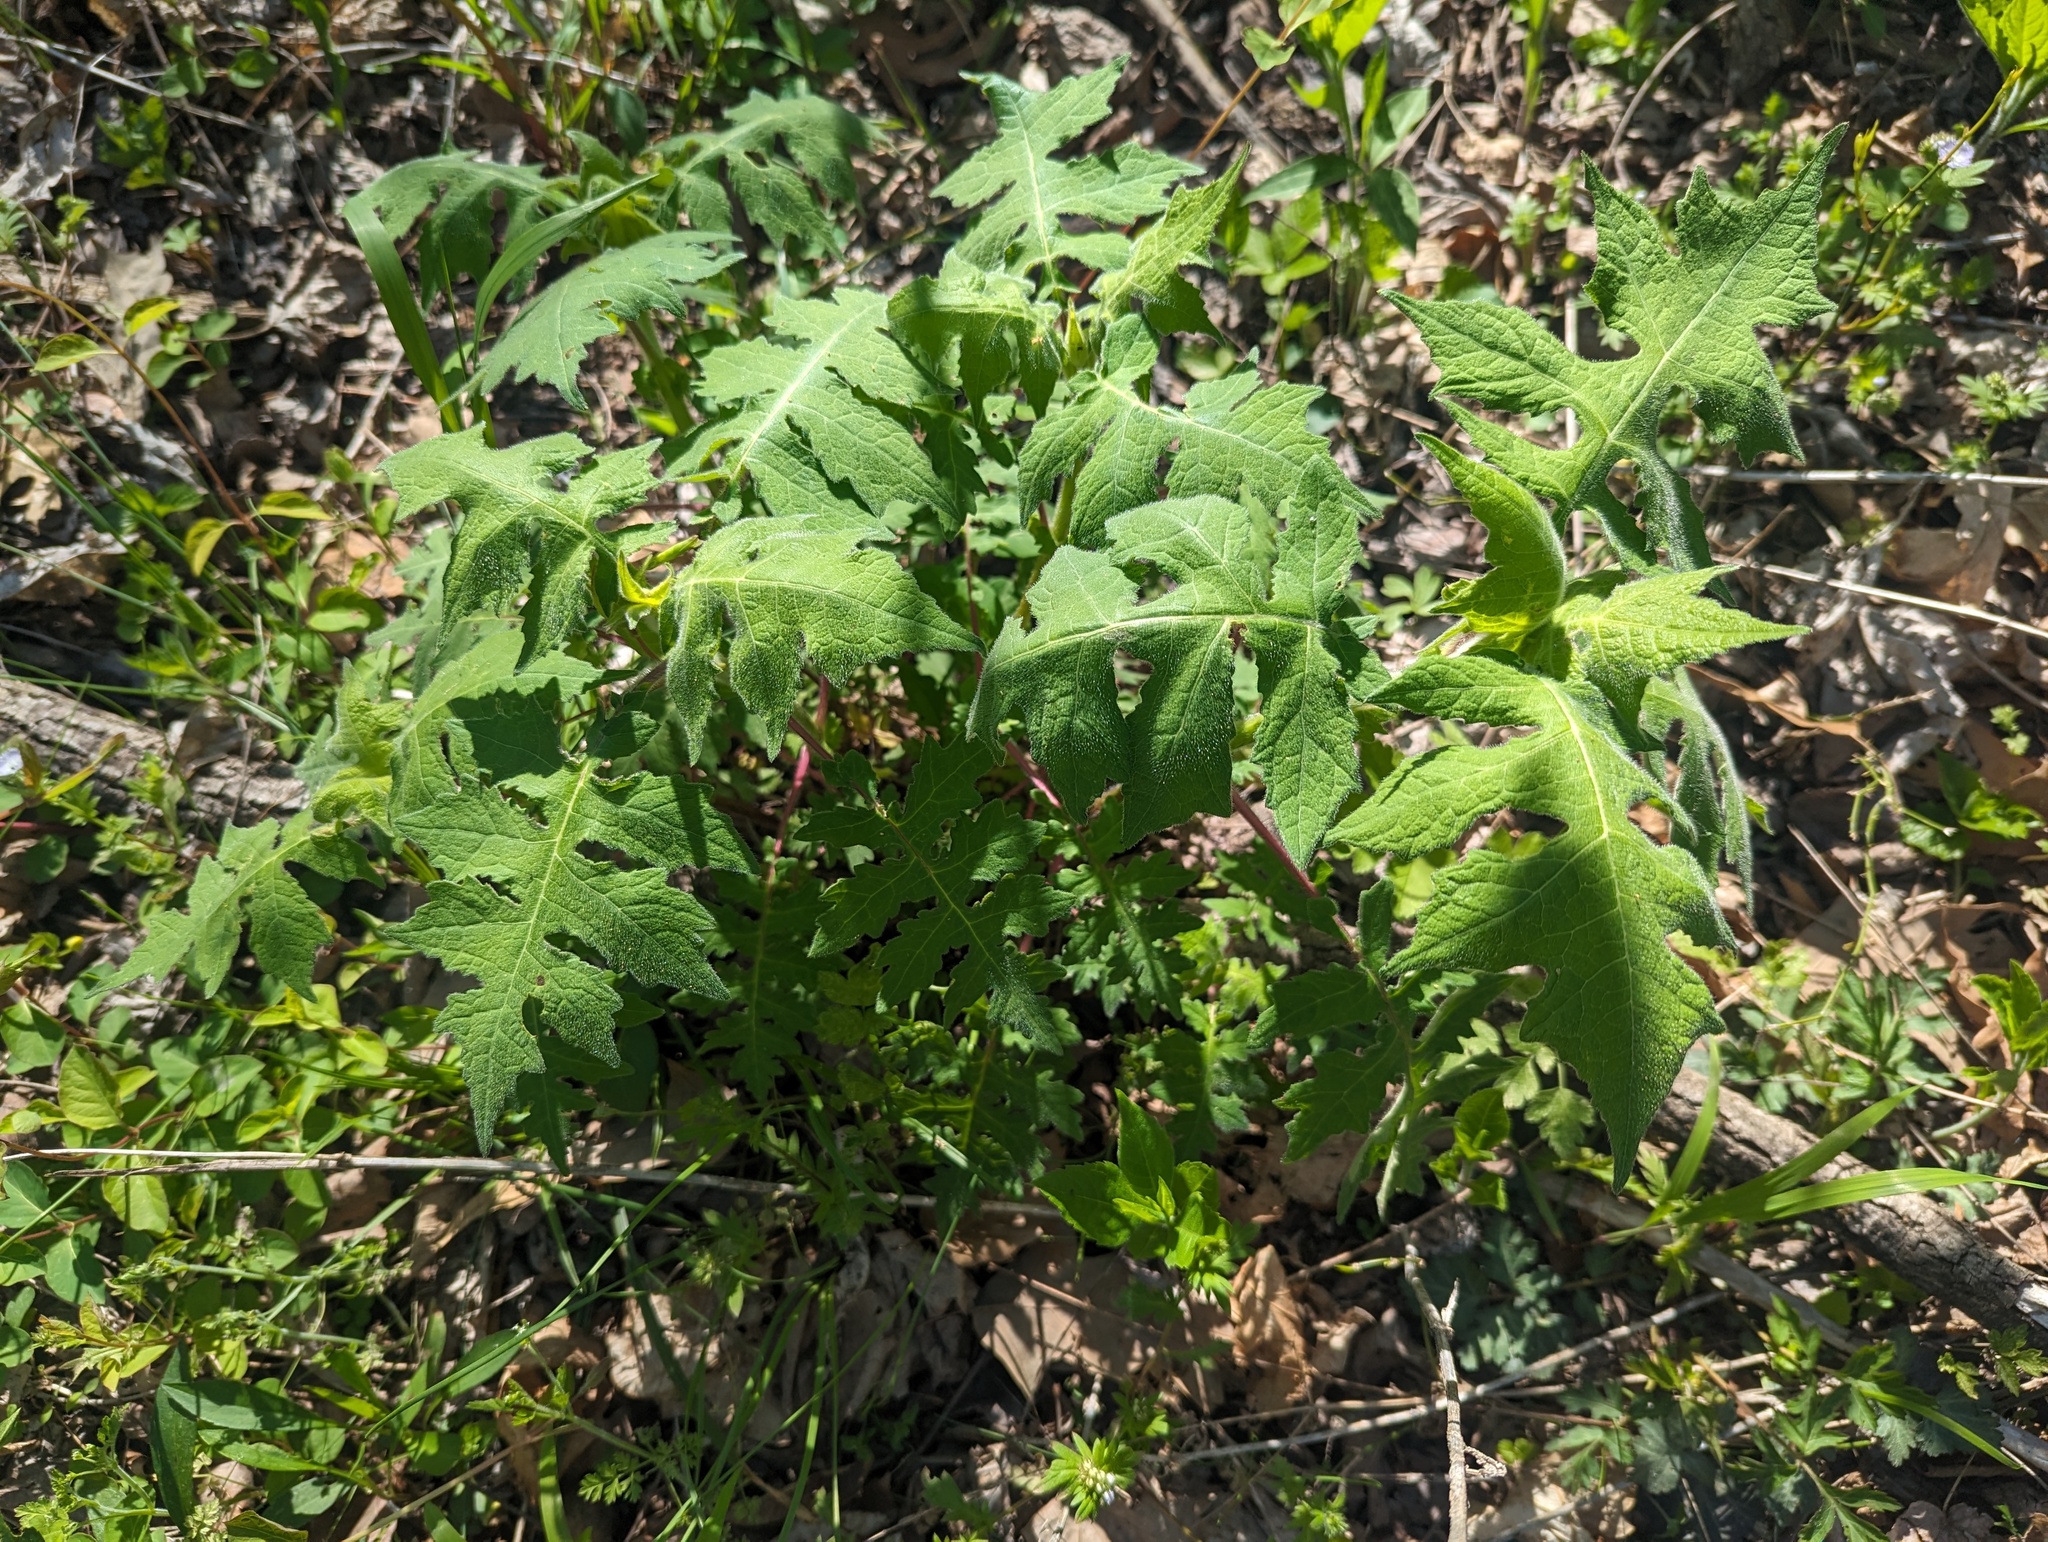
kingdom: Plantae
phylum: Tracheophyta
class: Magnoliopsida
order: Asterales
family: Asteraceae
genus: Polymnia
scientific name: Polymnia canadensis
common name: Pale-flowered leafcup
